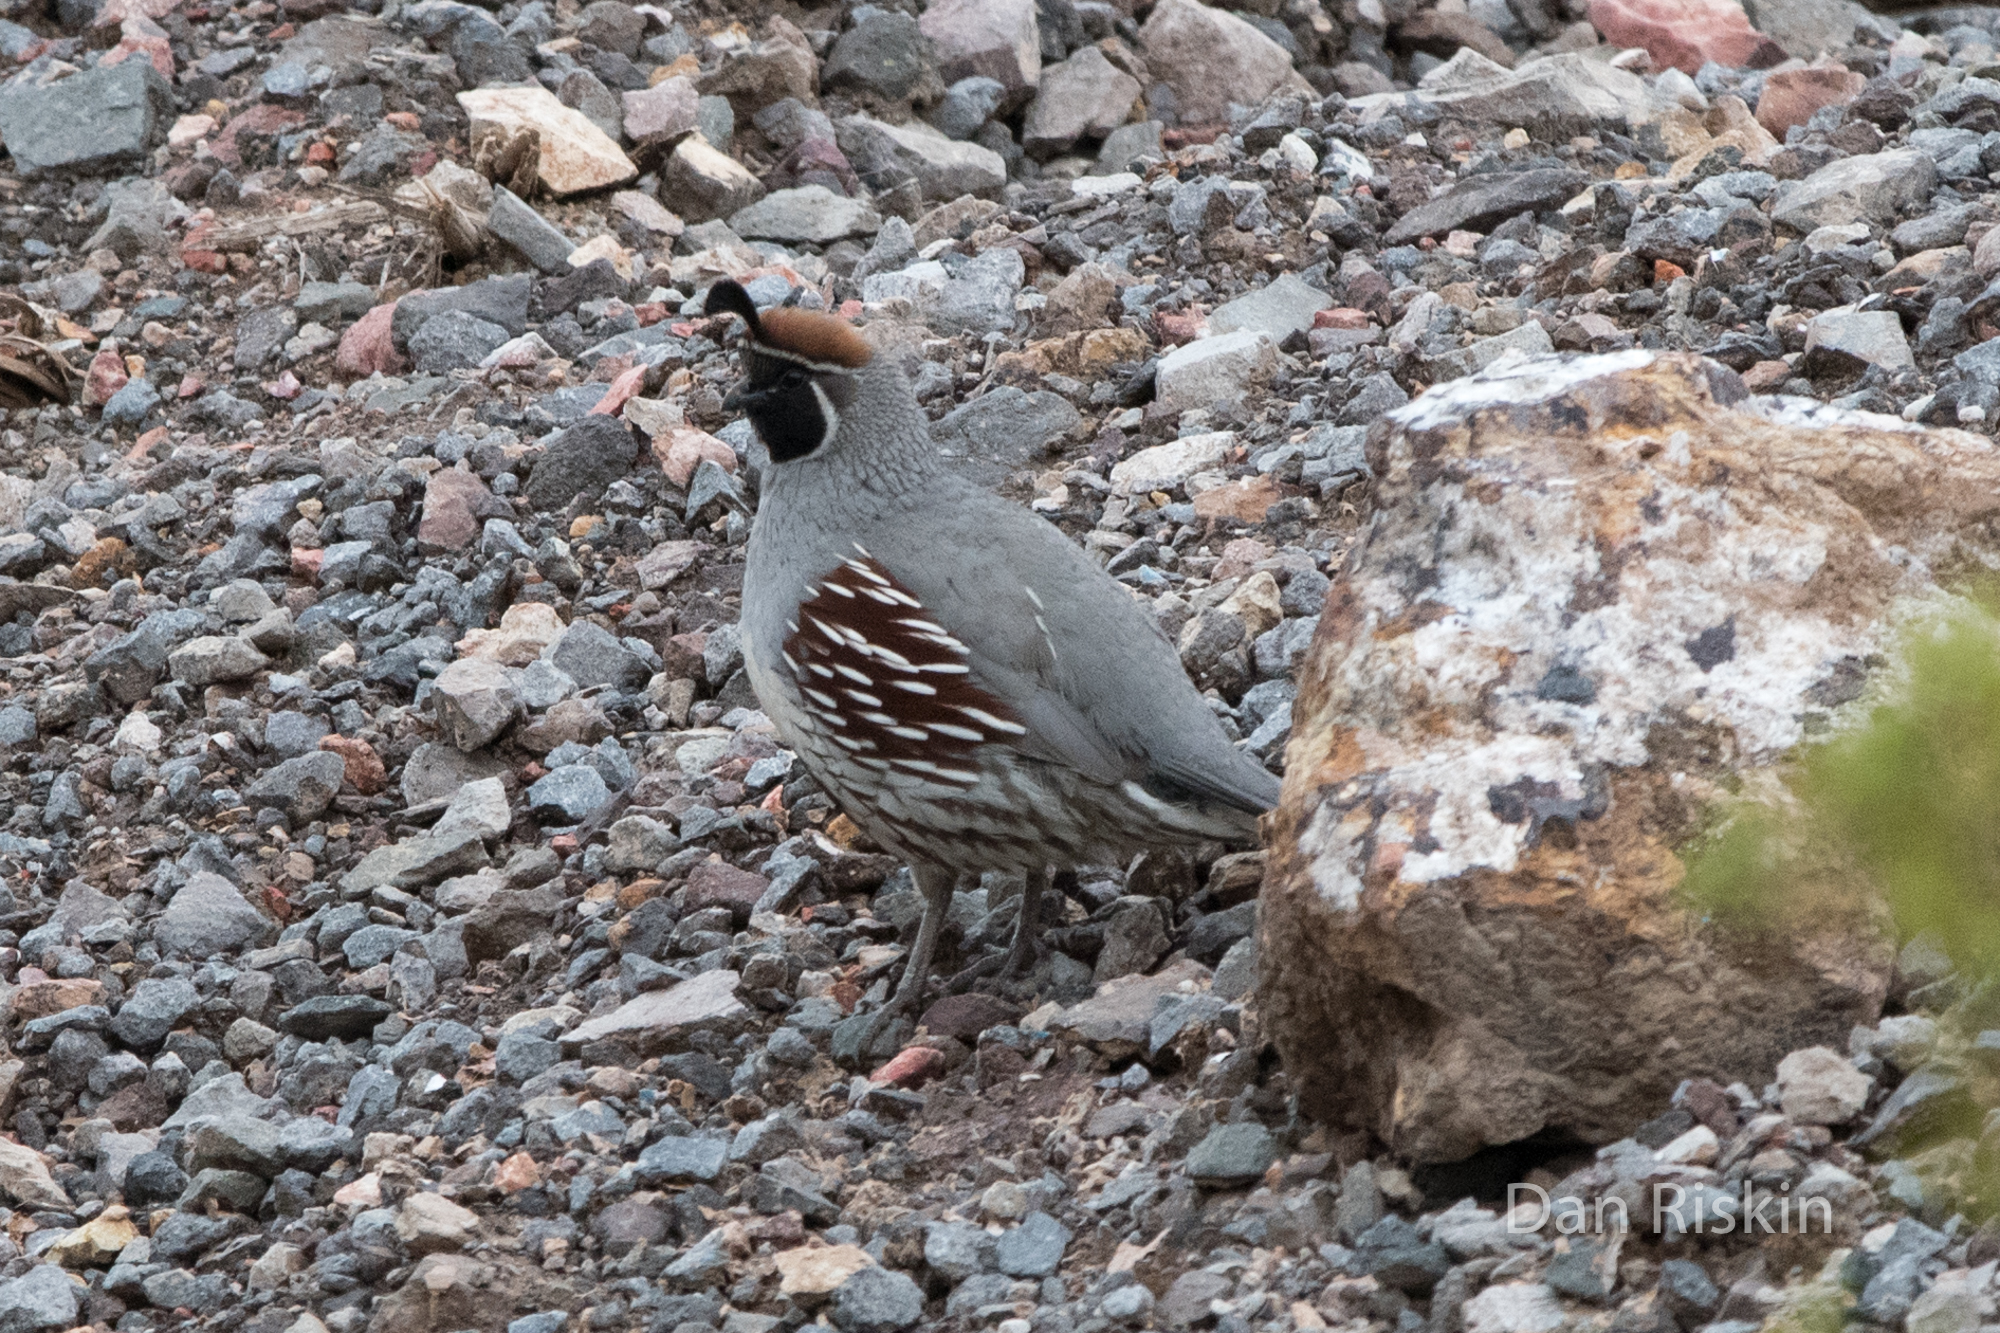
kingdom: Animalia
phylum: Chordata
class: Aves
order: Galliformes
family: Odontophoridae
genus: Callipepla
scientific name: Callipepla gambelii
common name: Gambel's quail
